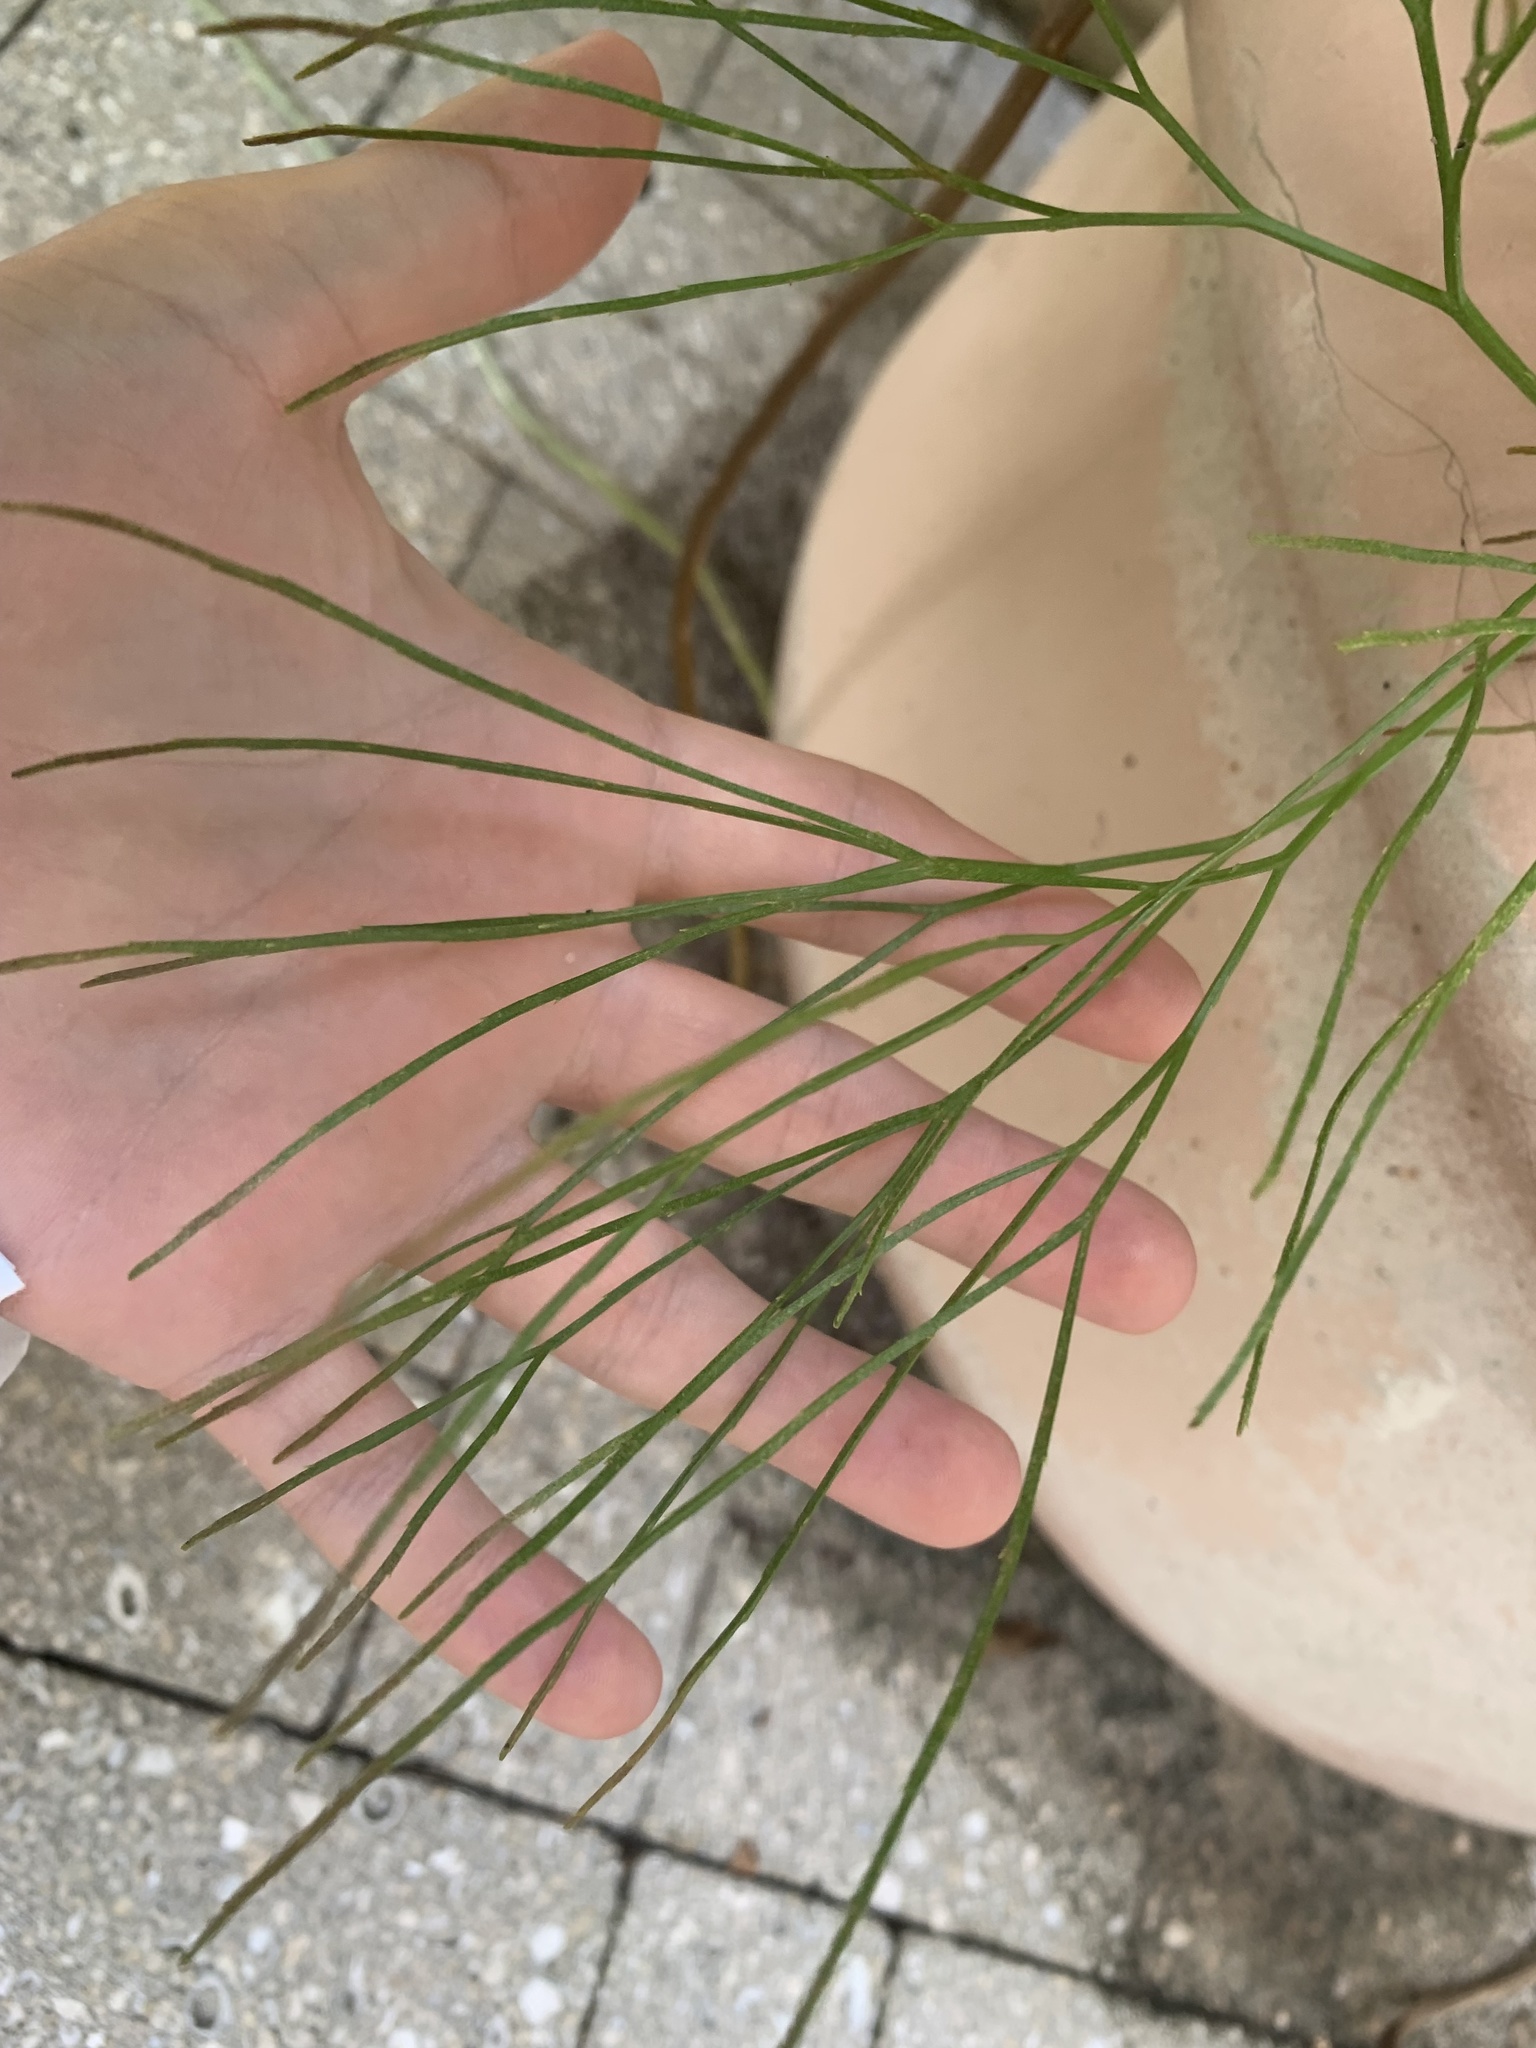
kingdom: Plantae
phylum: Tracheophyta
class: Polypodiopsida
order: Psilotales
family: Psilotaceae
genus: Psilotum
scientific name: Psilotum nudum
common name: Skeleton fork fern
